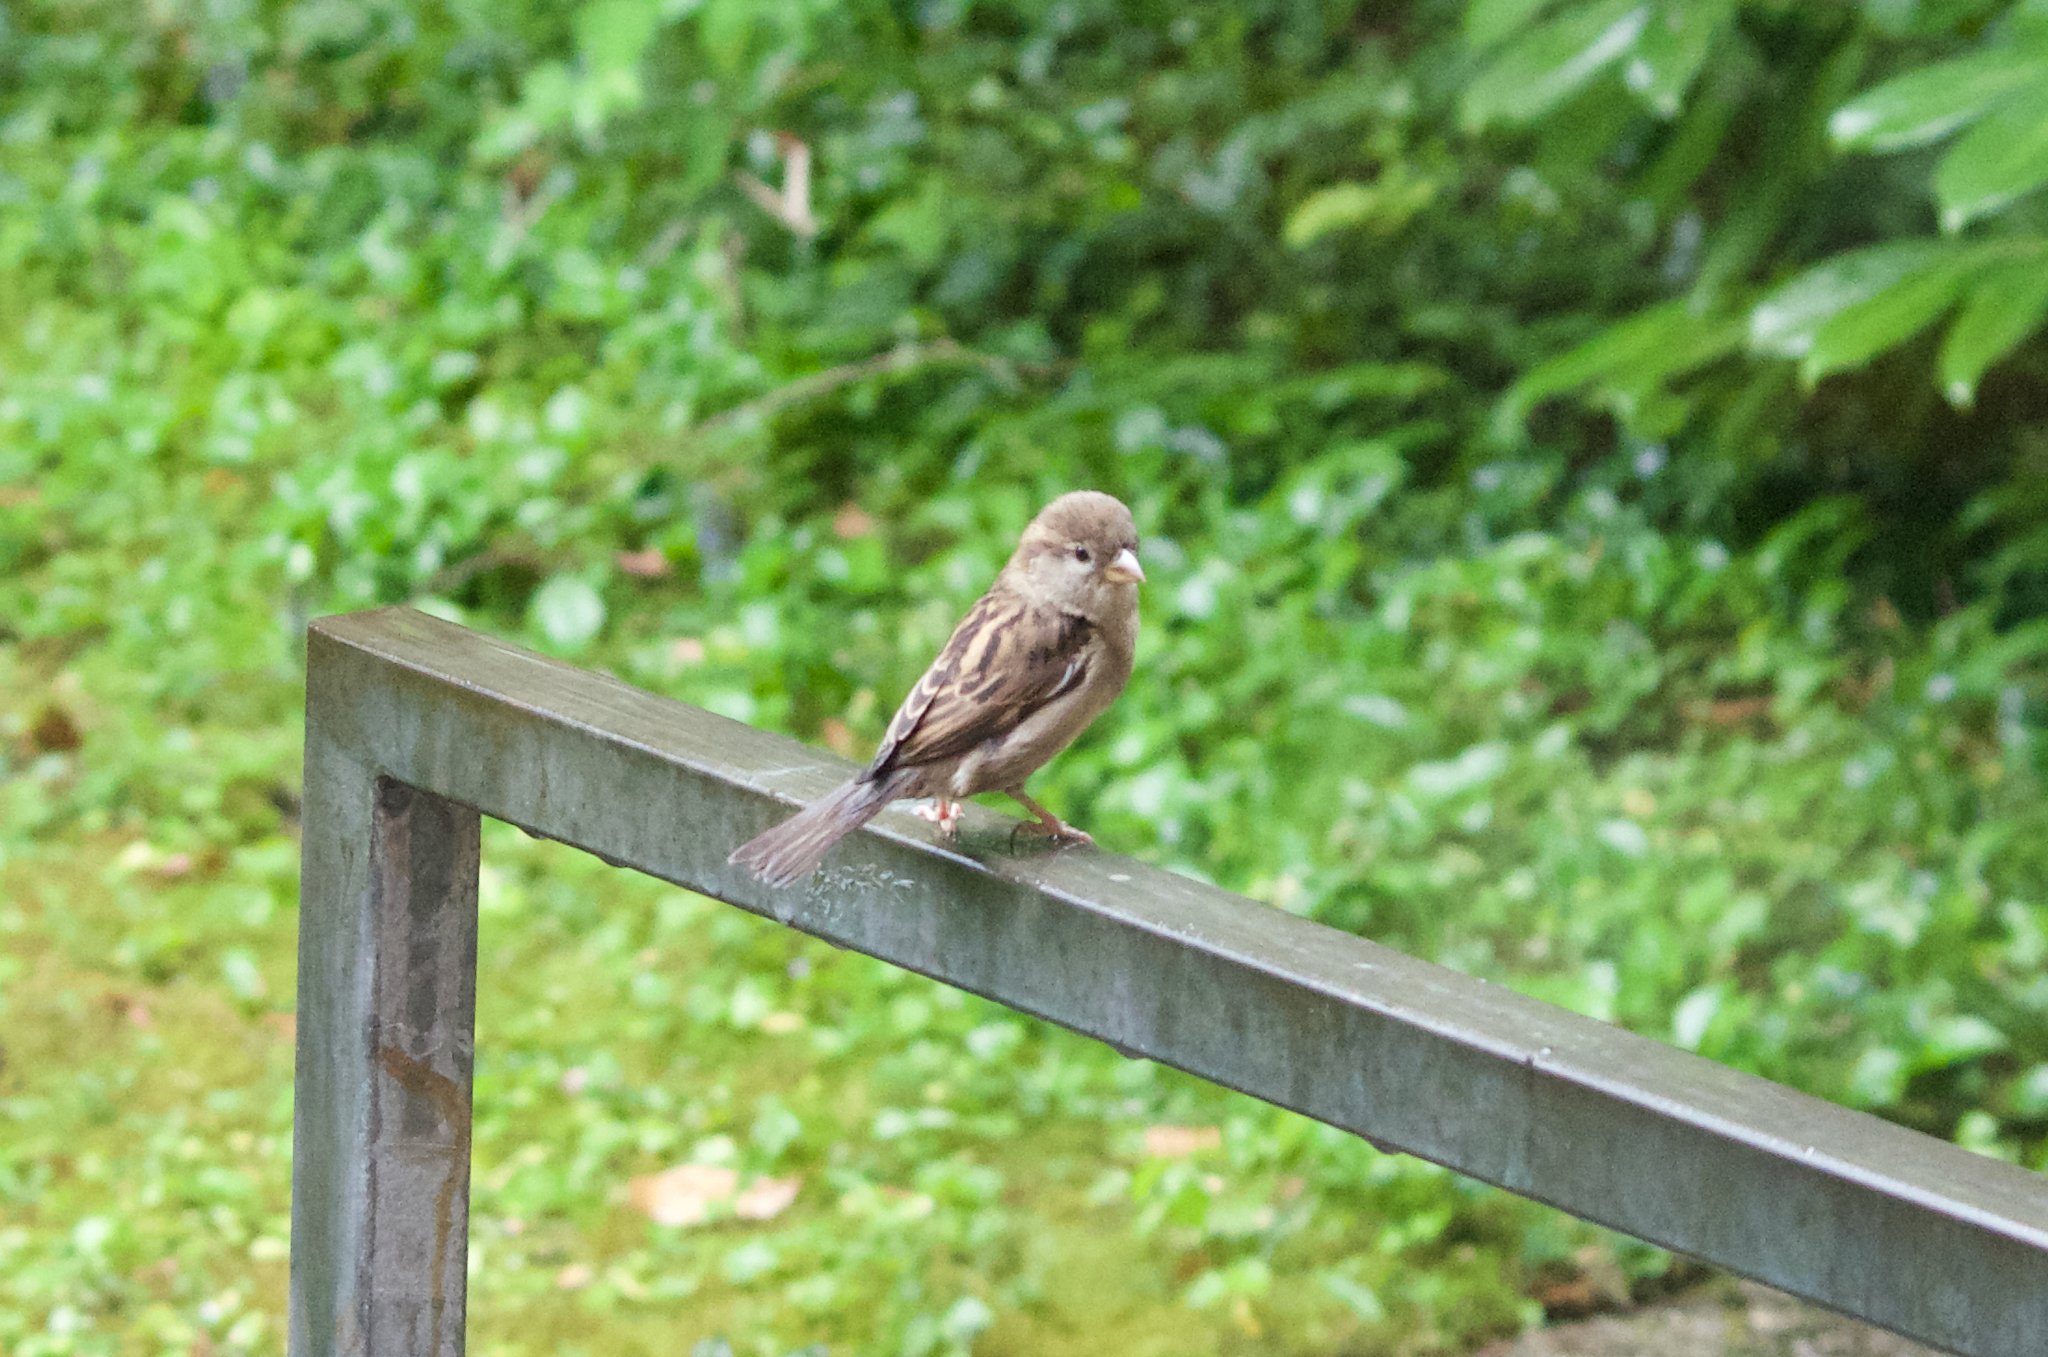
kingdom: Animalia
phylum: Chordata
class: Aves
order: Passeriformes
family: Passeridae
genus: Passer
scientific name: Passer domesticus
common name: House sparrow
